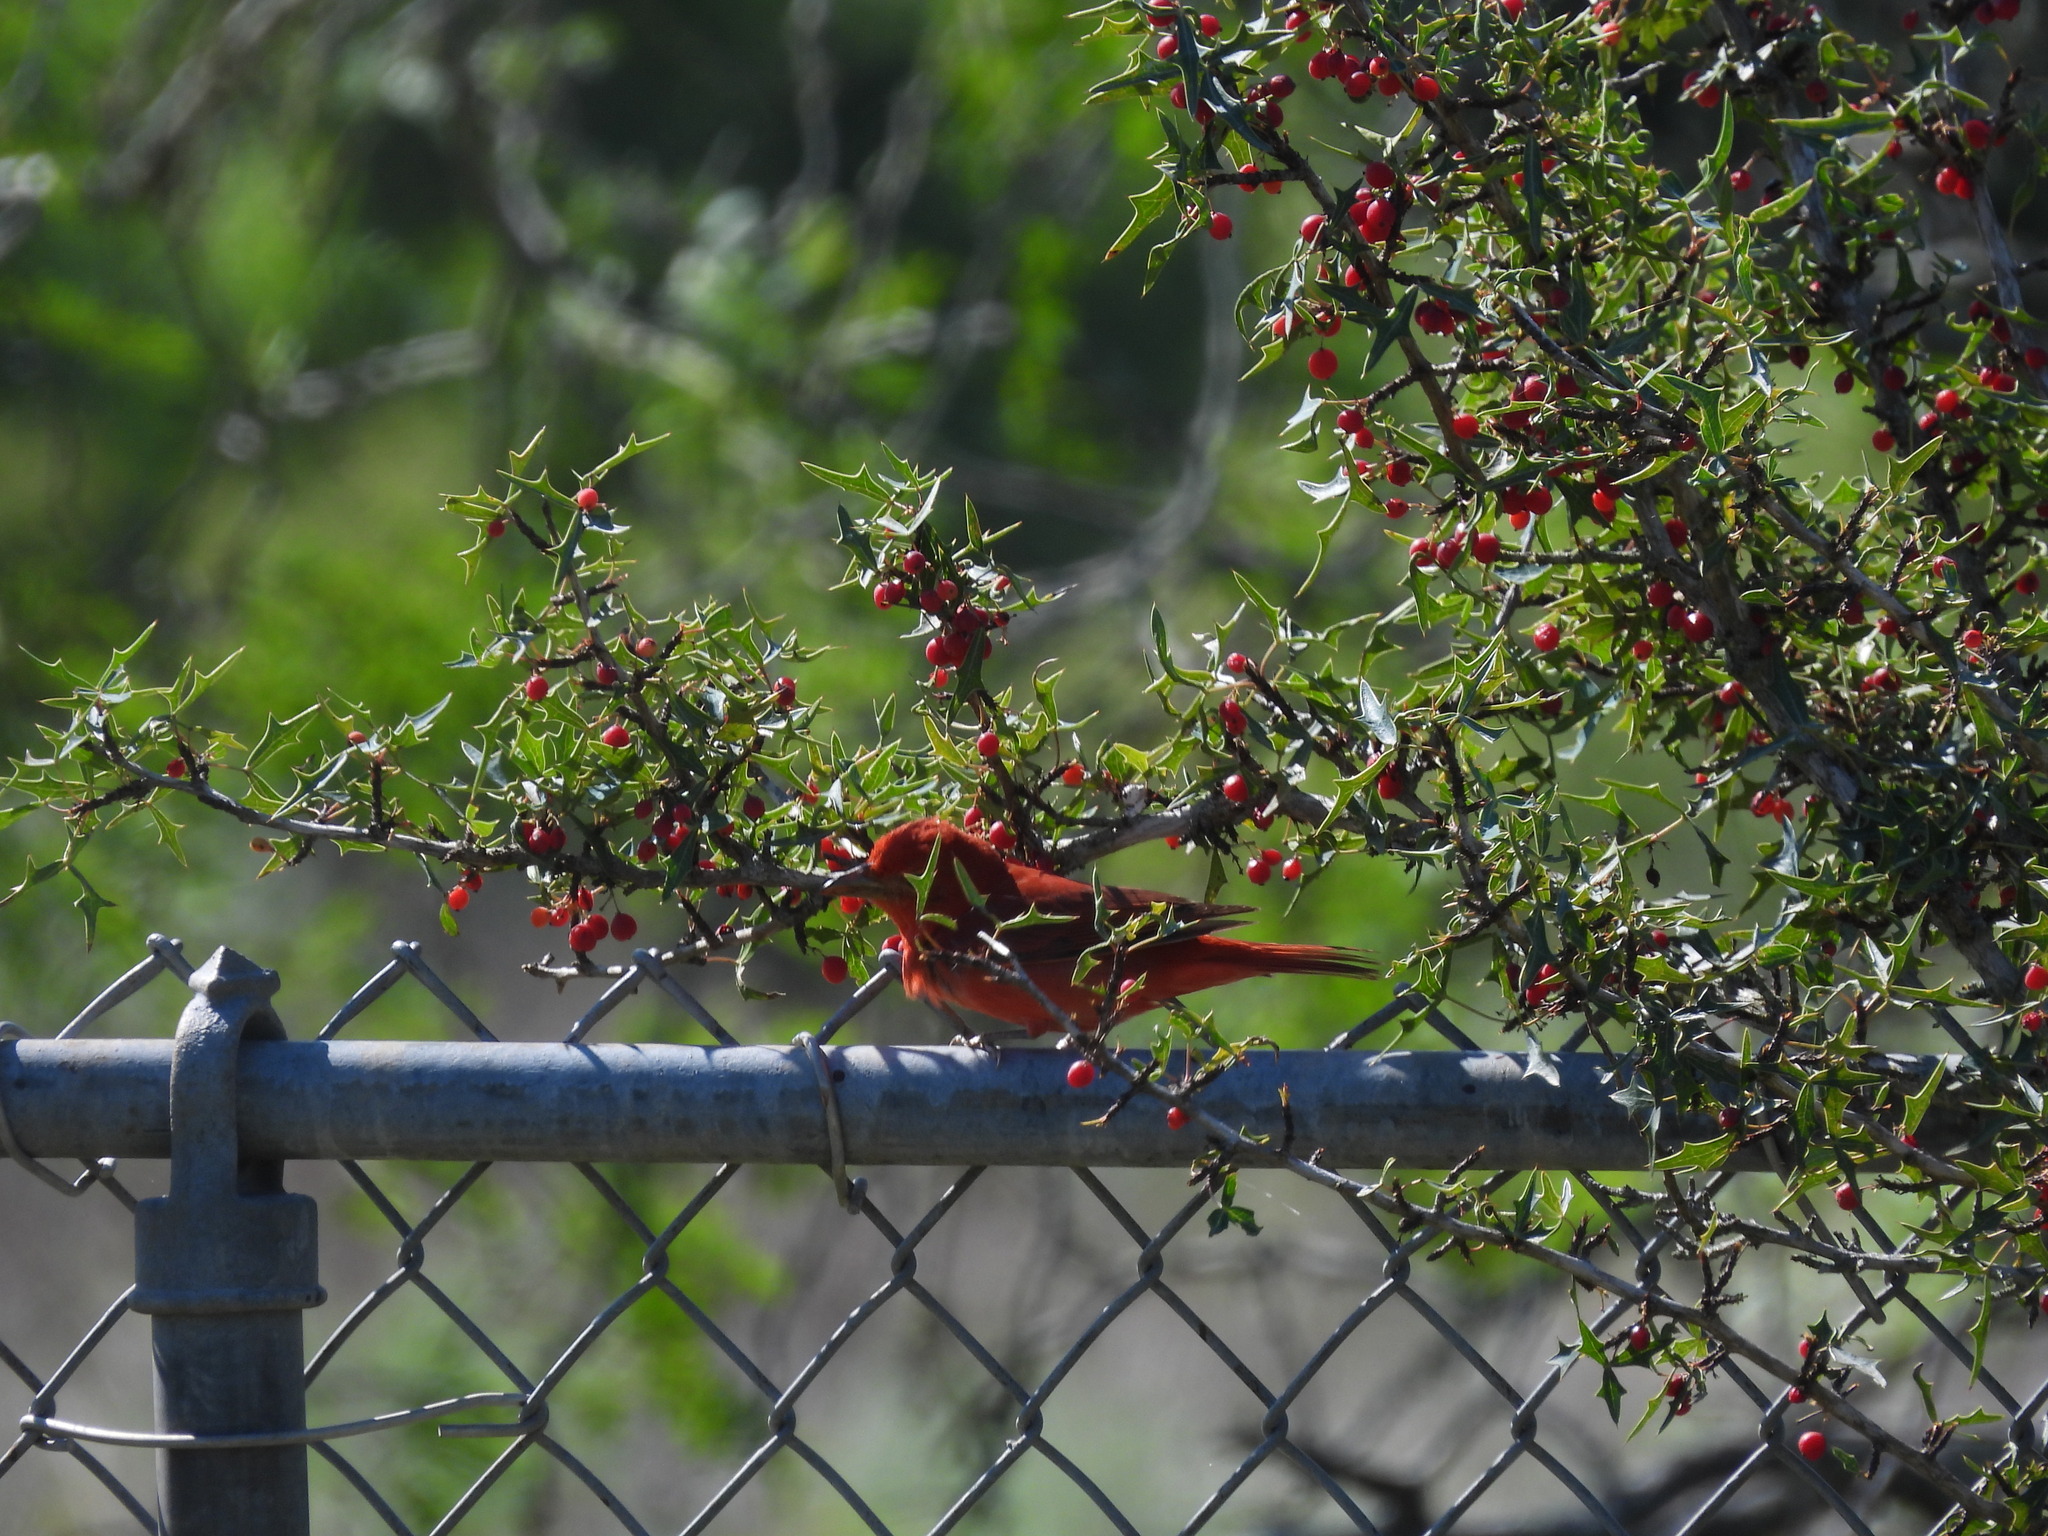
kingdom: Animalia
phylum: Chordata
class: Aves
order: Passeriformes
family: Cardinalidae
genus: Piranga
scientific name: Piranga rubra
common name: Summer tanager
